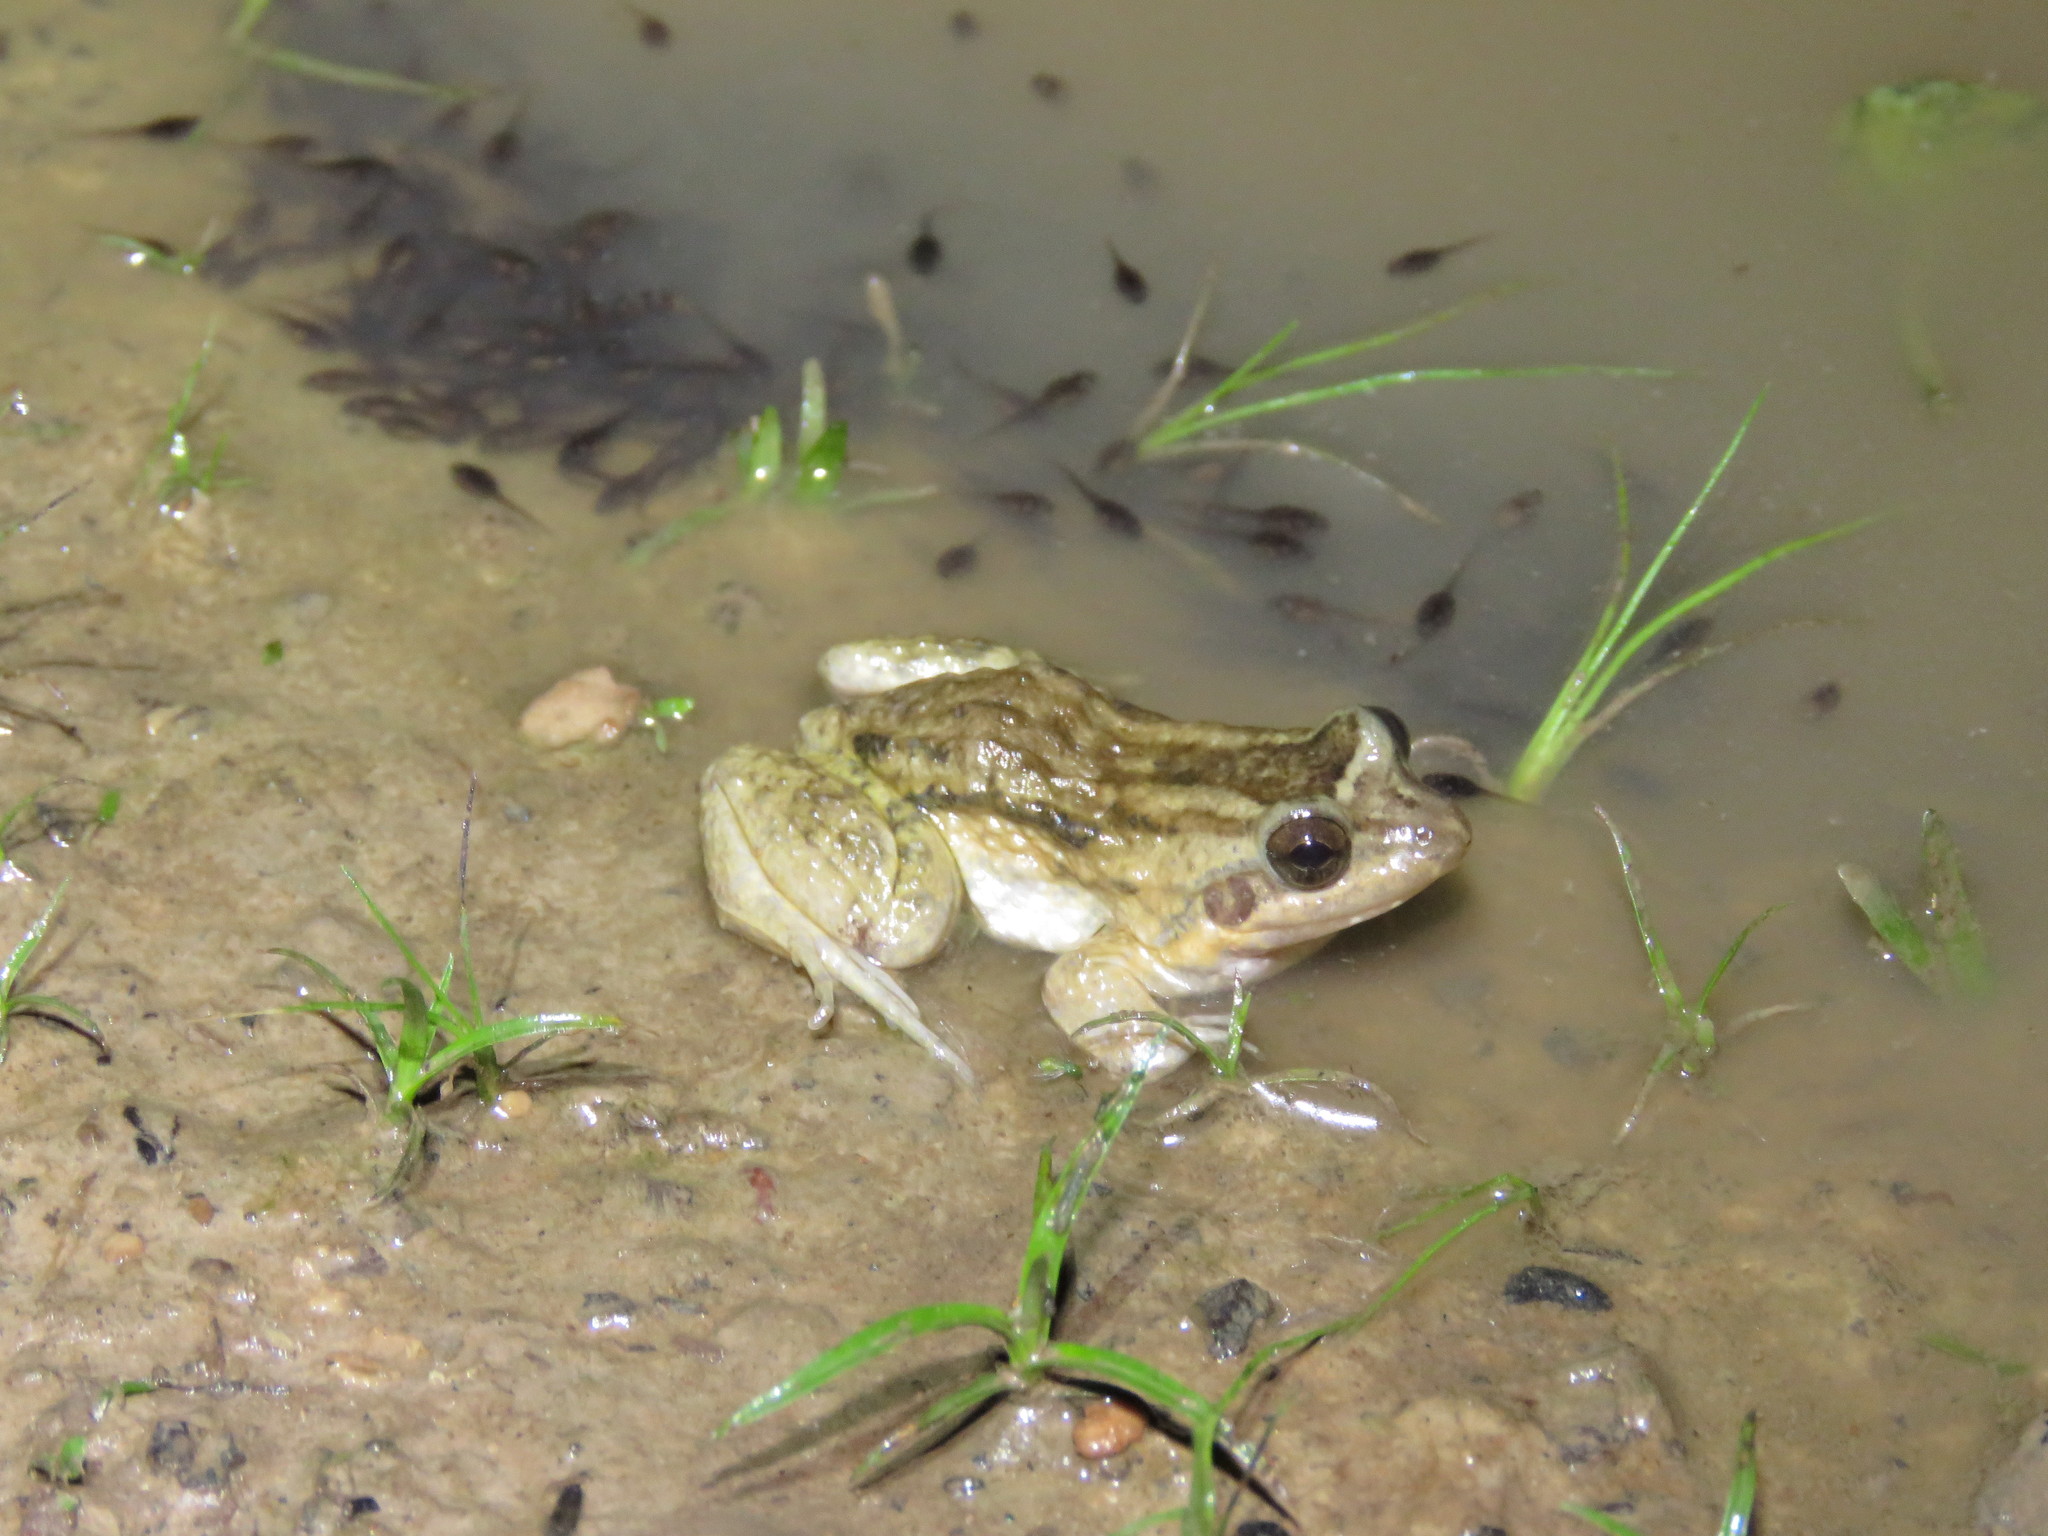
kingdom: Animalia
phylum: Chordata
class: Amphibia
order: Anura
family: Leptodactylidae
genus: Leptodactylus
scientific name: Leptodactylus leptodactyloides
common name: Common thin-toed frog
